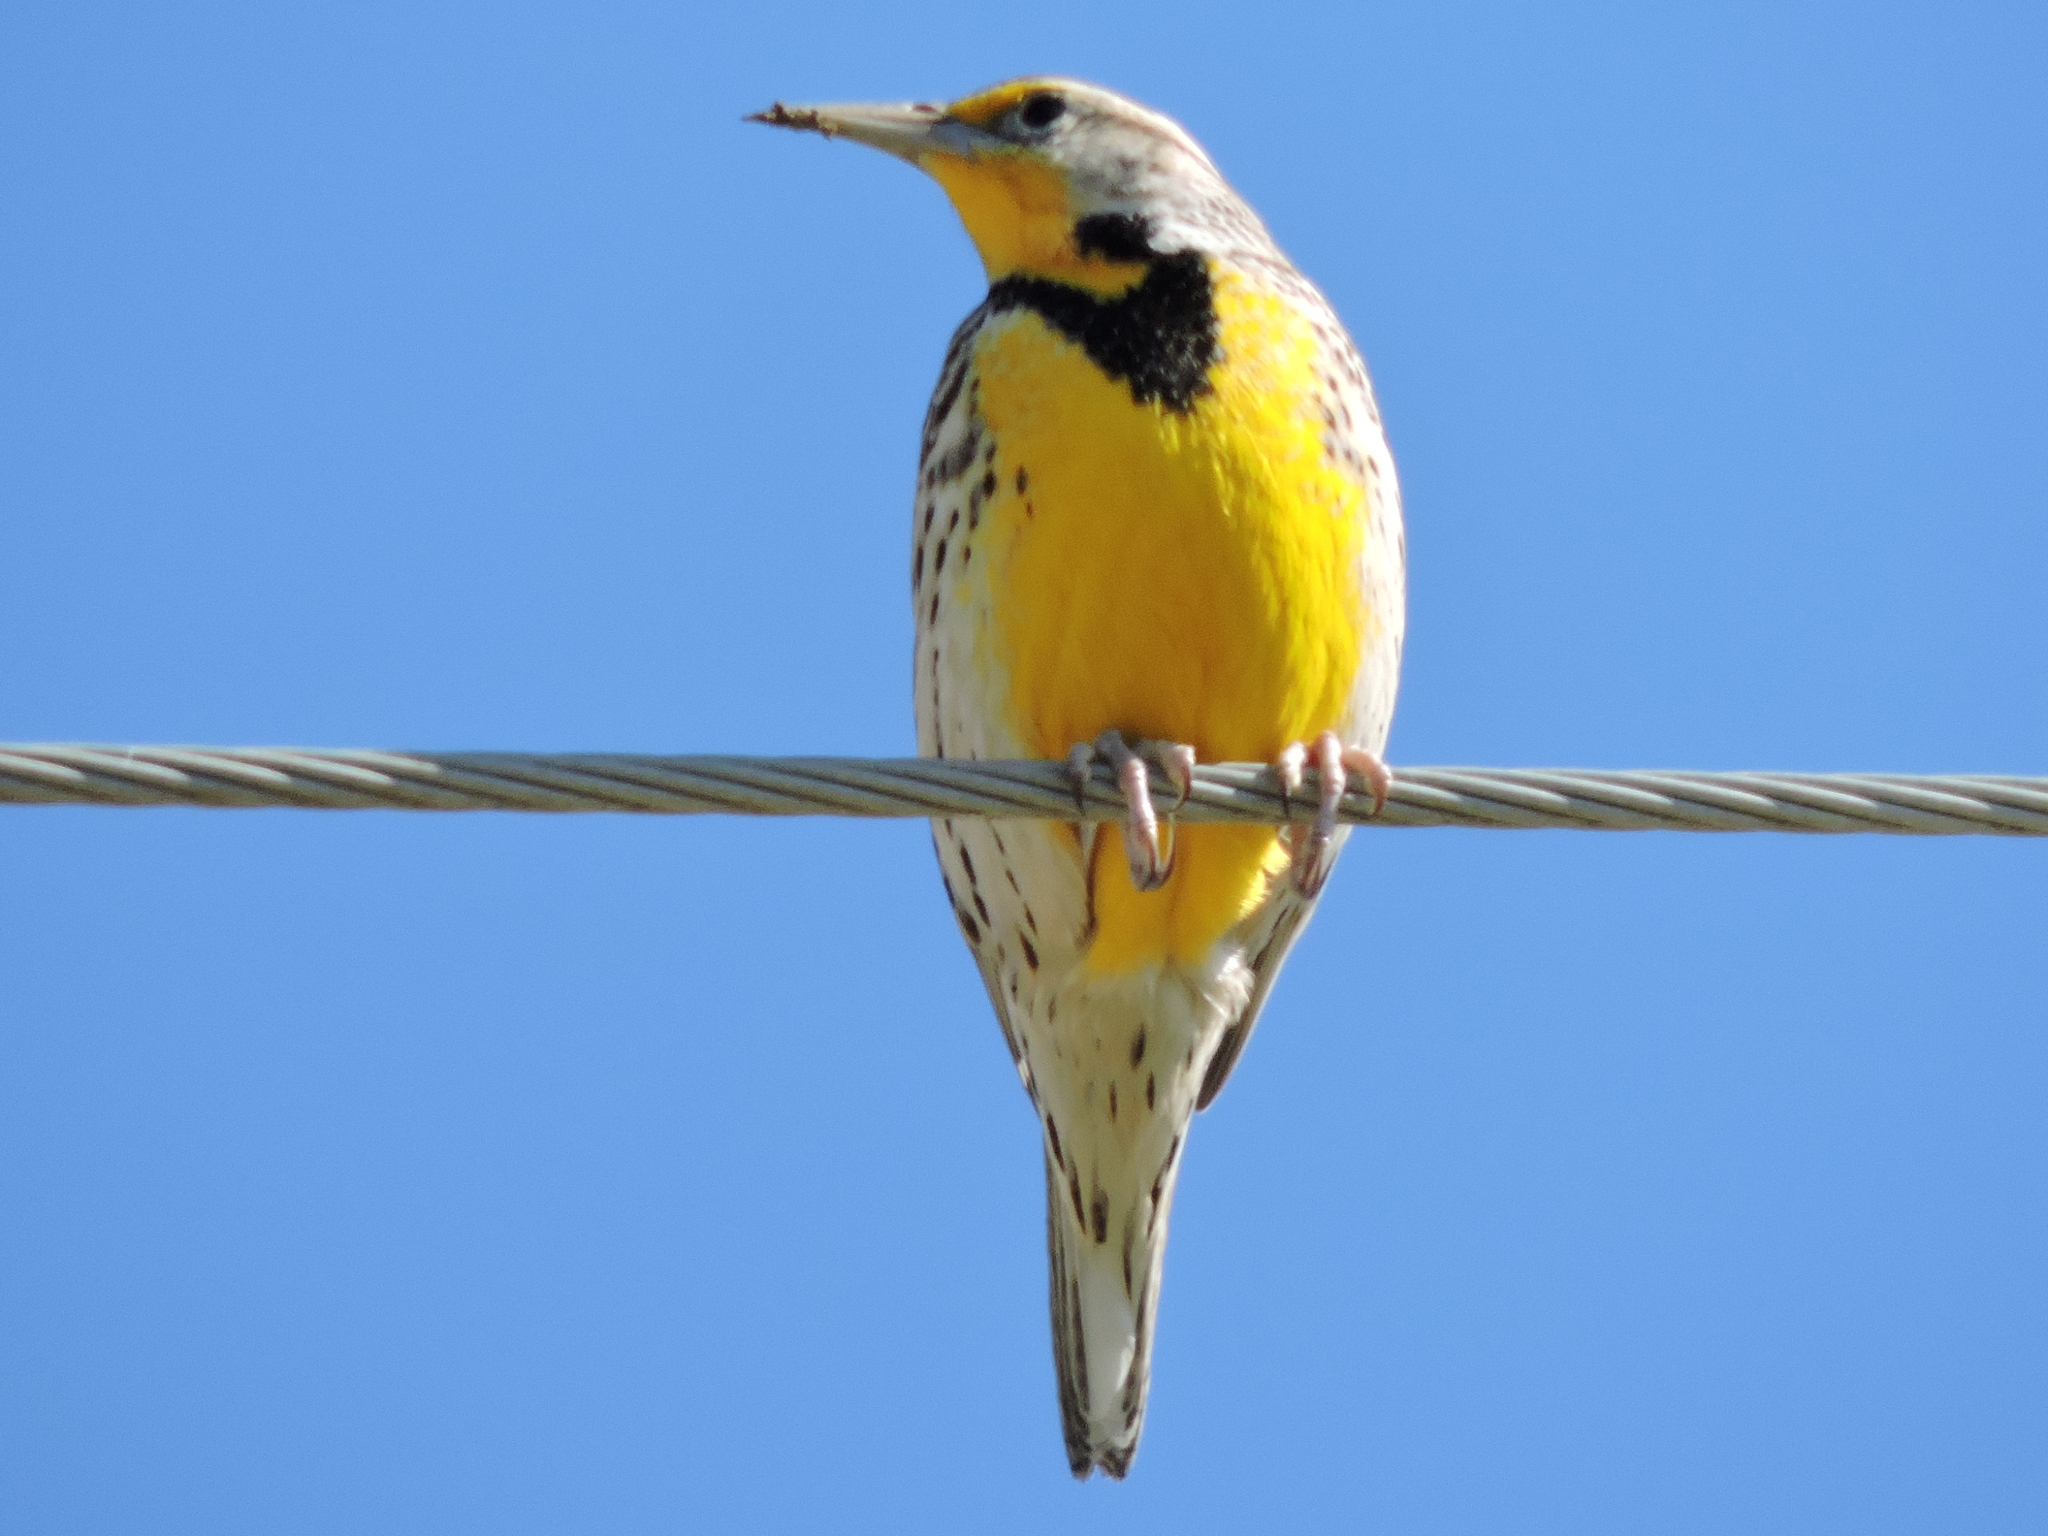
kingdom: Animalia
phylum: Chordata
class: Aves
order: Passeriformes
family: Icteridae
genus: Sturnella
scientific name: Sturnella magna
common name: Eastern meadowlark
